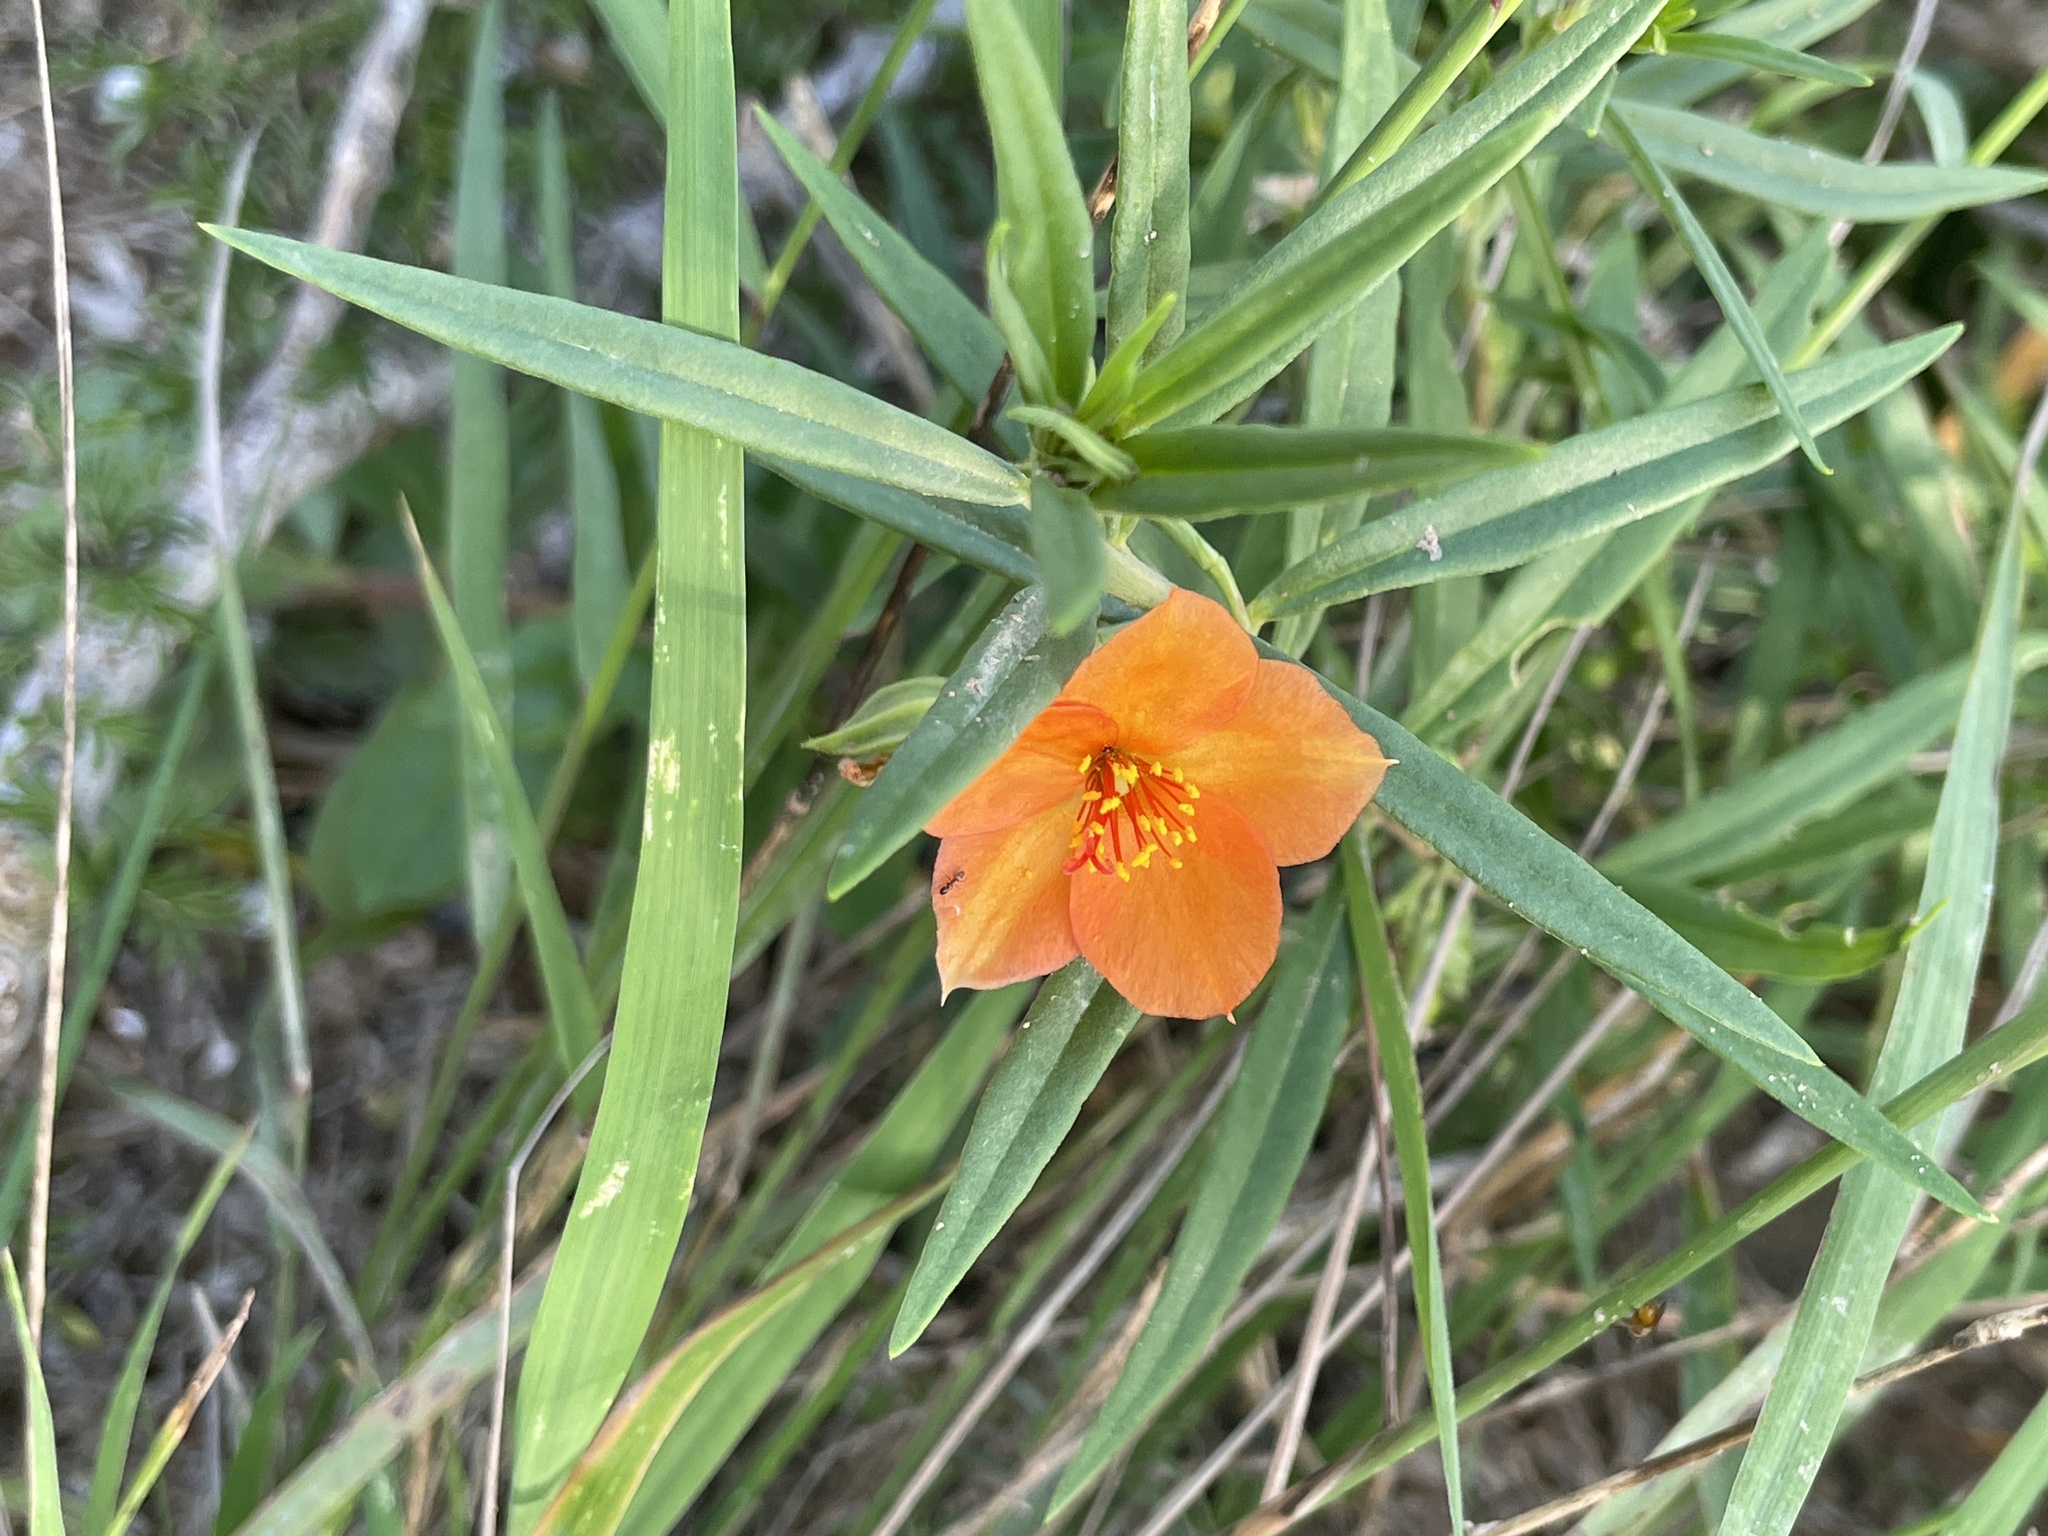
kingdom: Plantae
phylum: Tracheophyta
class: Magnoliopsida
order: Caryophyllales
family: Montiaceae
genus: Phemeranthus
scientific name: Phemeranthus aurantiacus
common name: Orange fameflower
